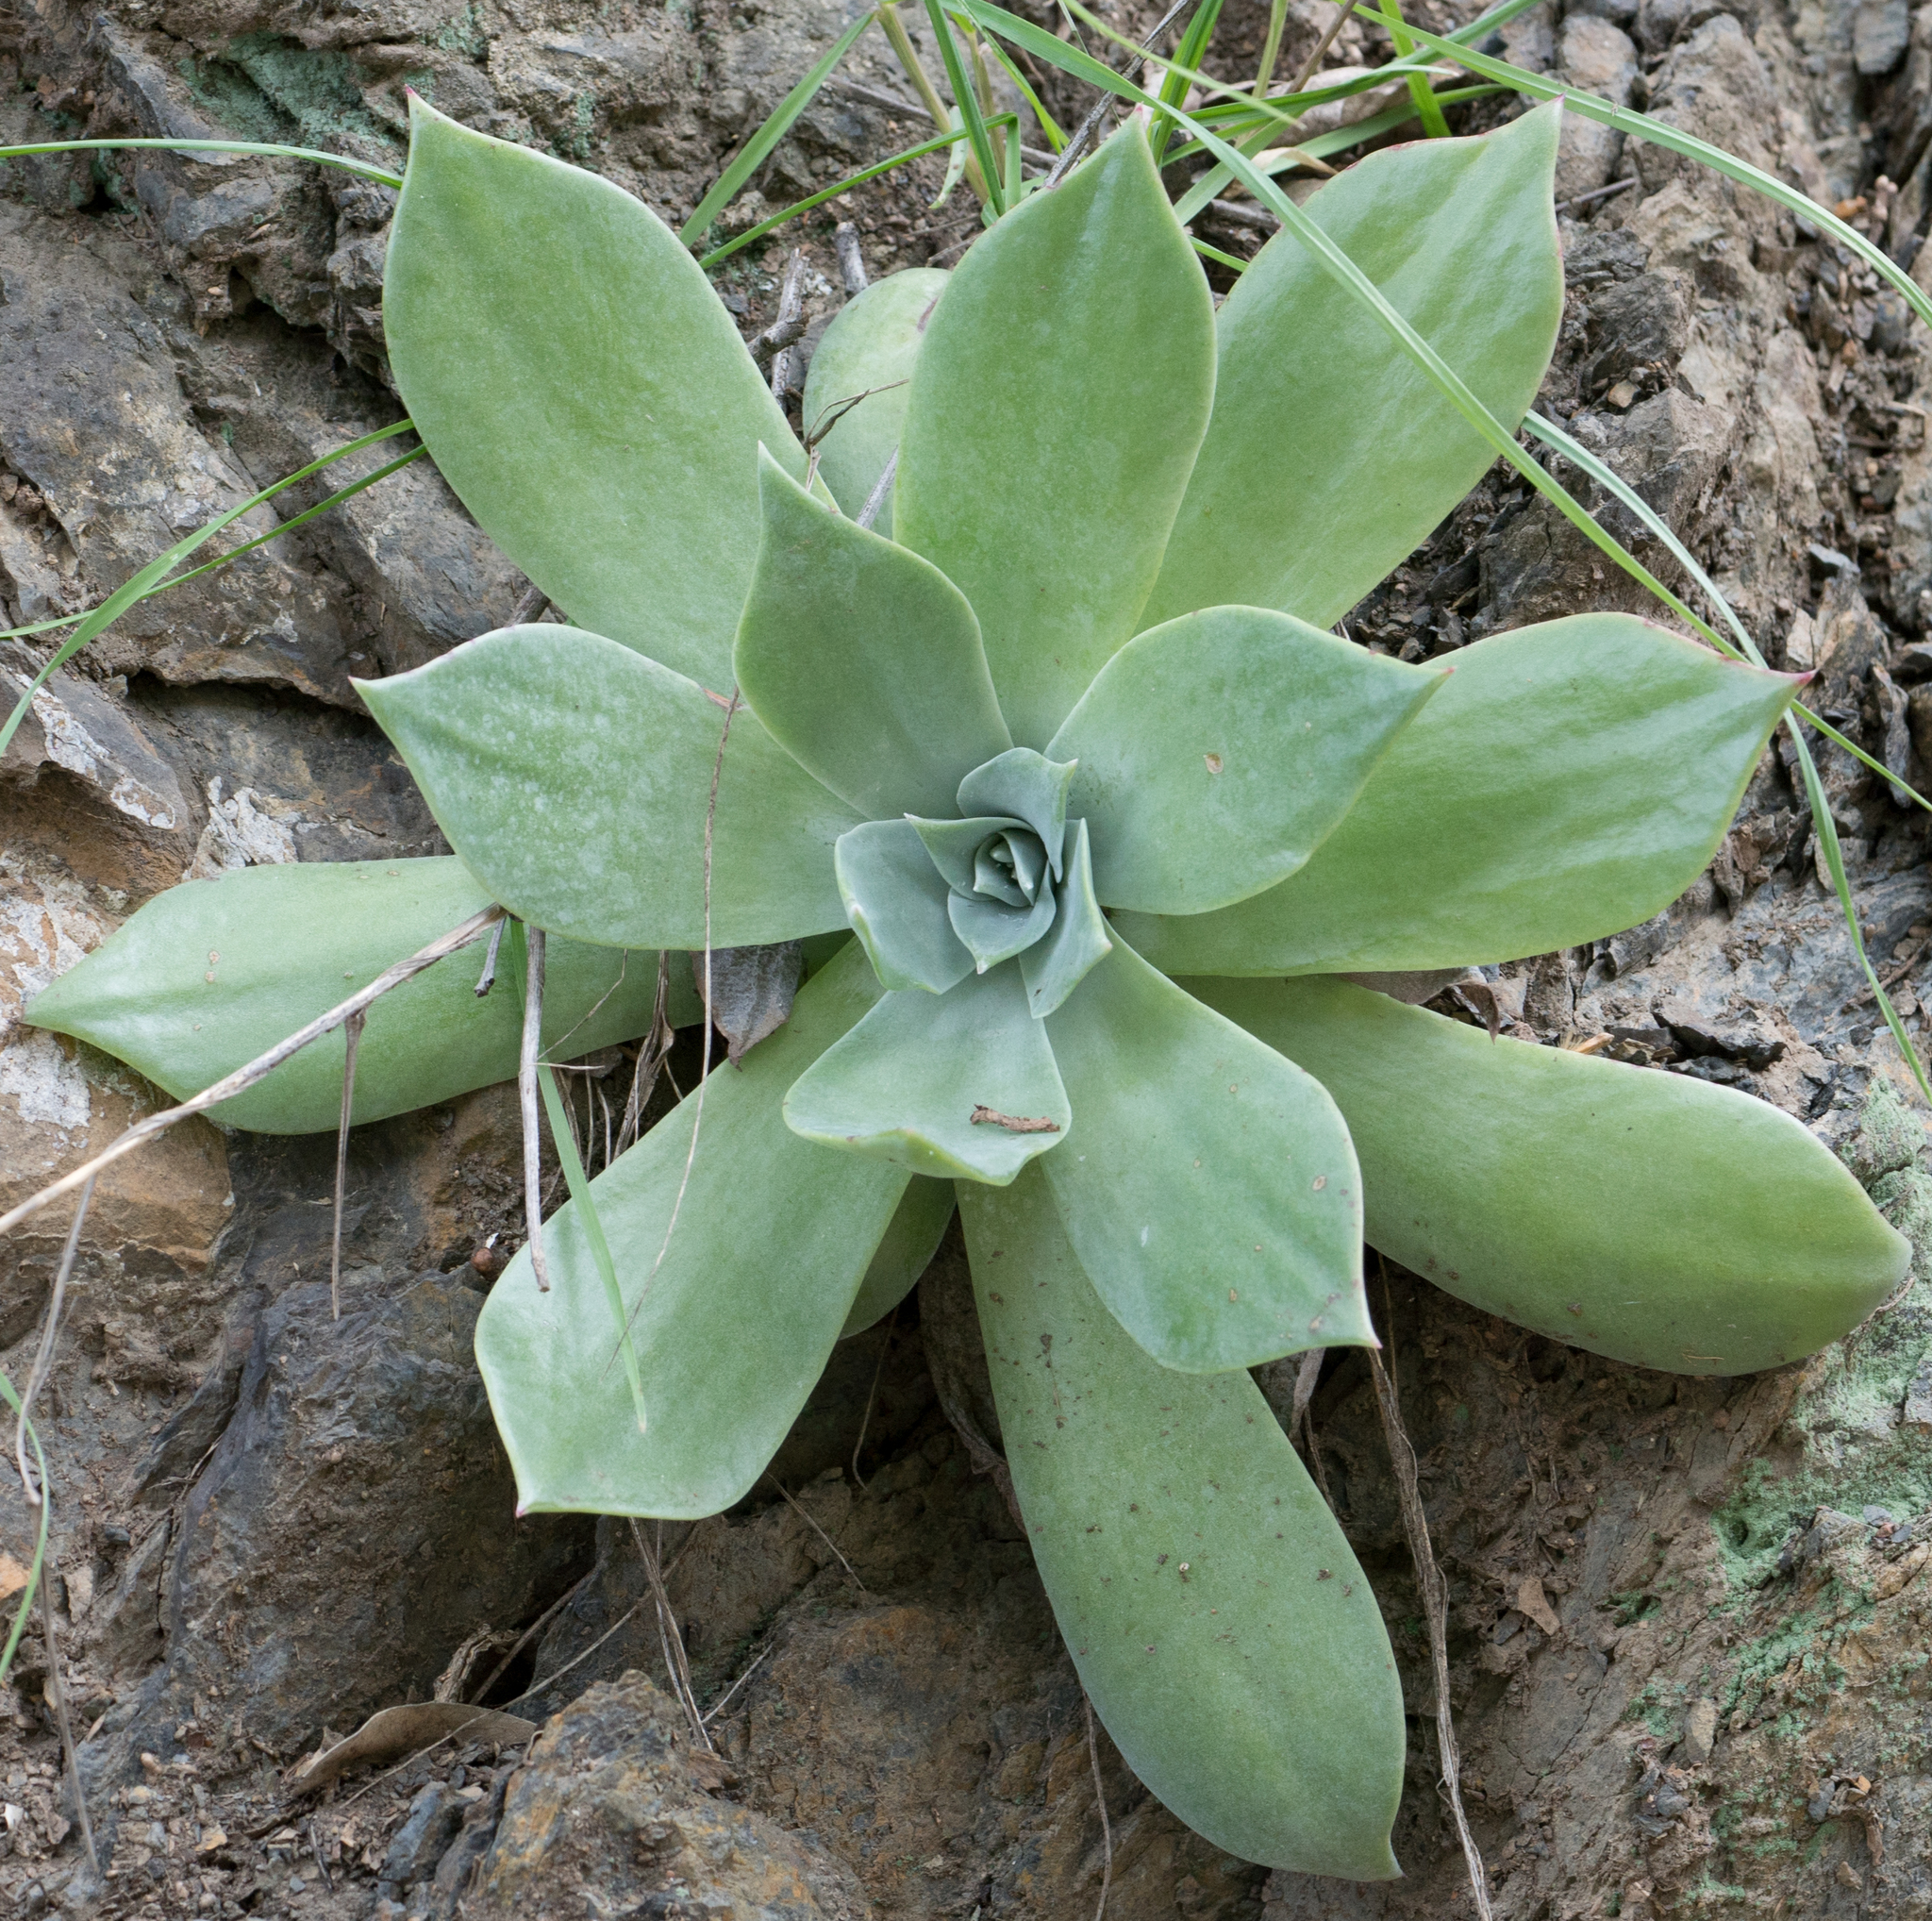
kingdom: Plantae
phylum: Tracheophyta
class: Magnoliopsida
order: Saxifragales
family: Crassulaceae
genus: Dudleya
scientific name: Dudleya pulverulenta
